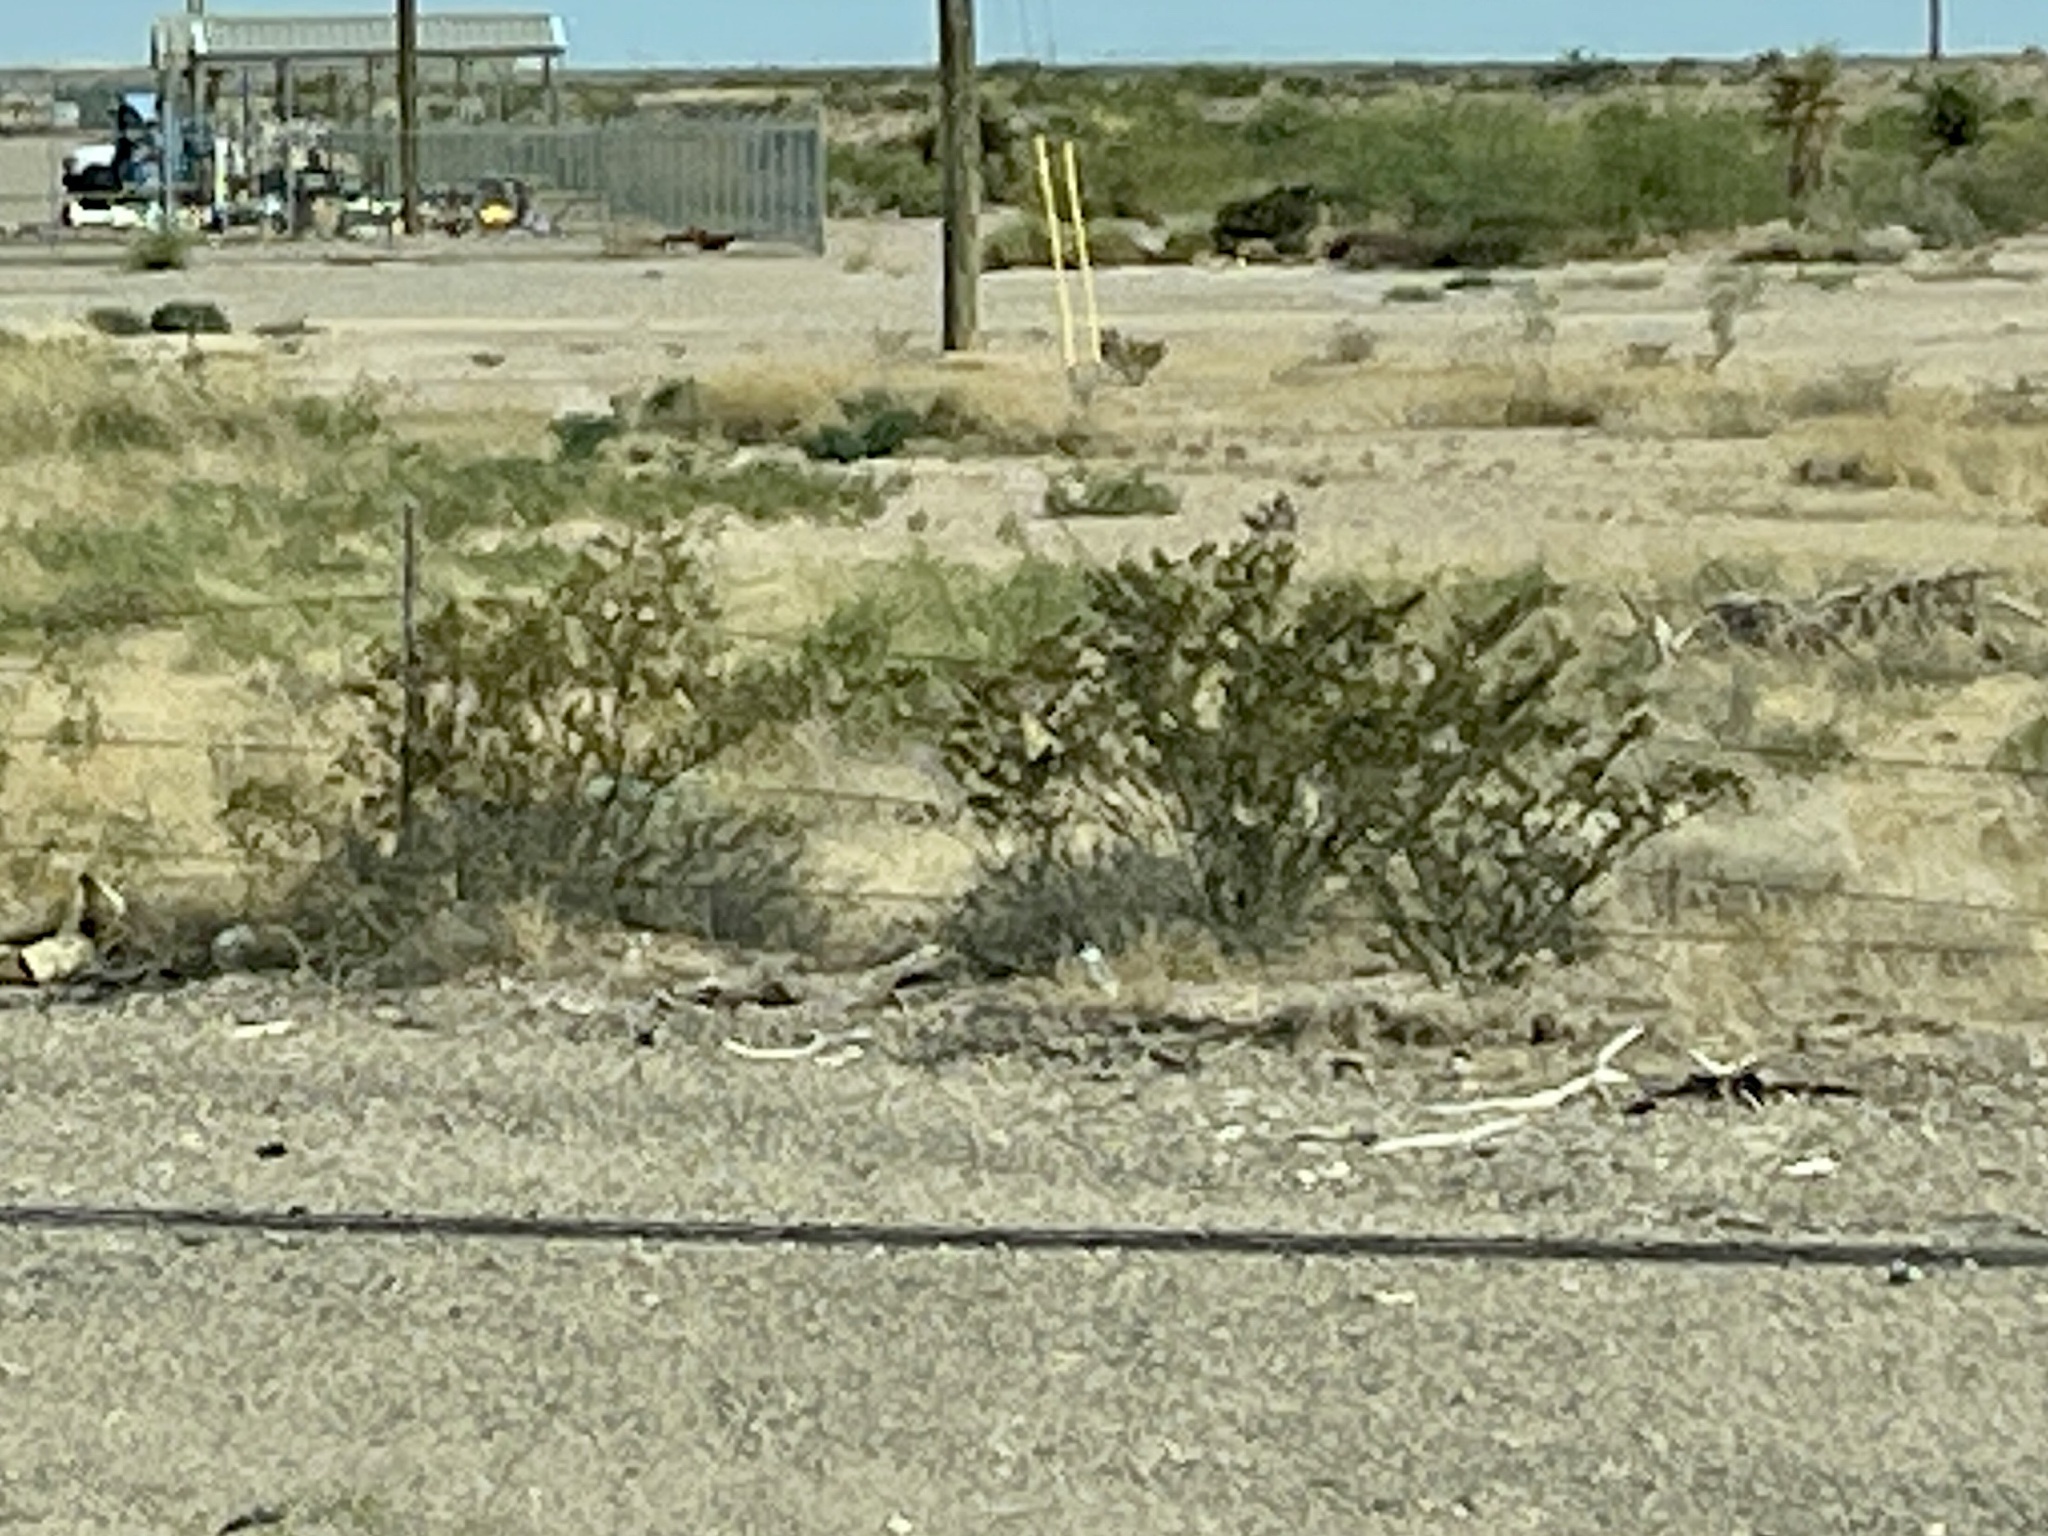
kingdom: Plantae
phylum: Tracheophyta
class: Magnoliopsida
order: Zygophyllales
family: Zygophyllaceae
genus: Larrea
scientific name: Larrea tridentata
